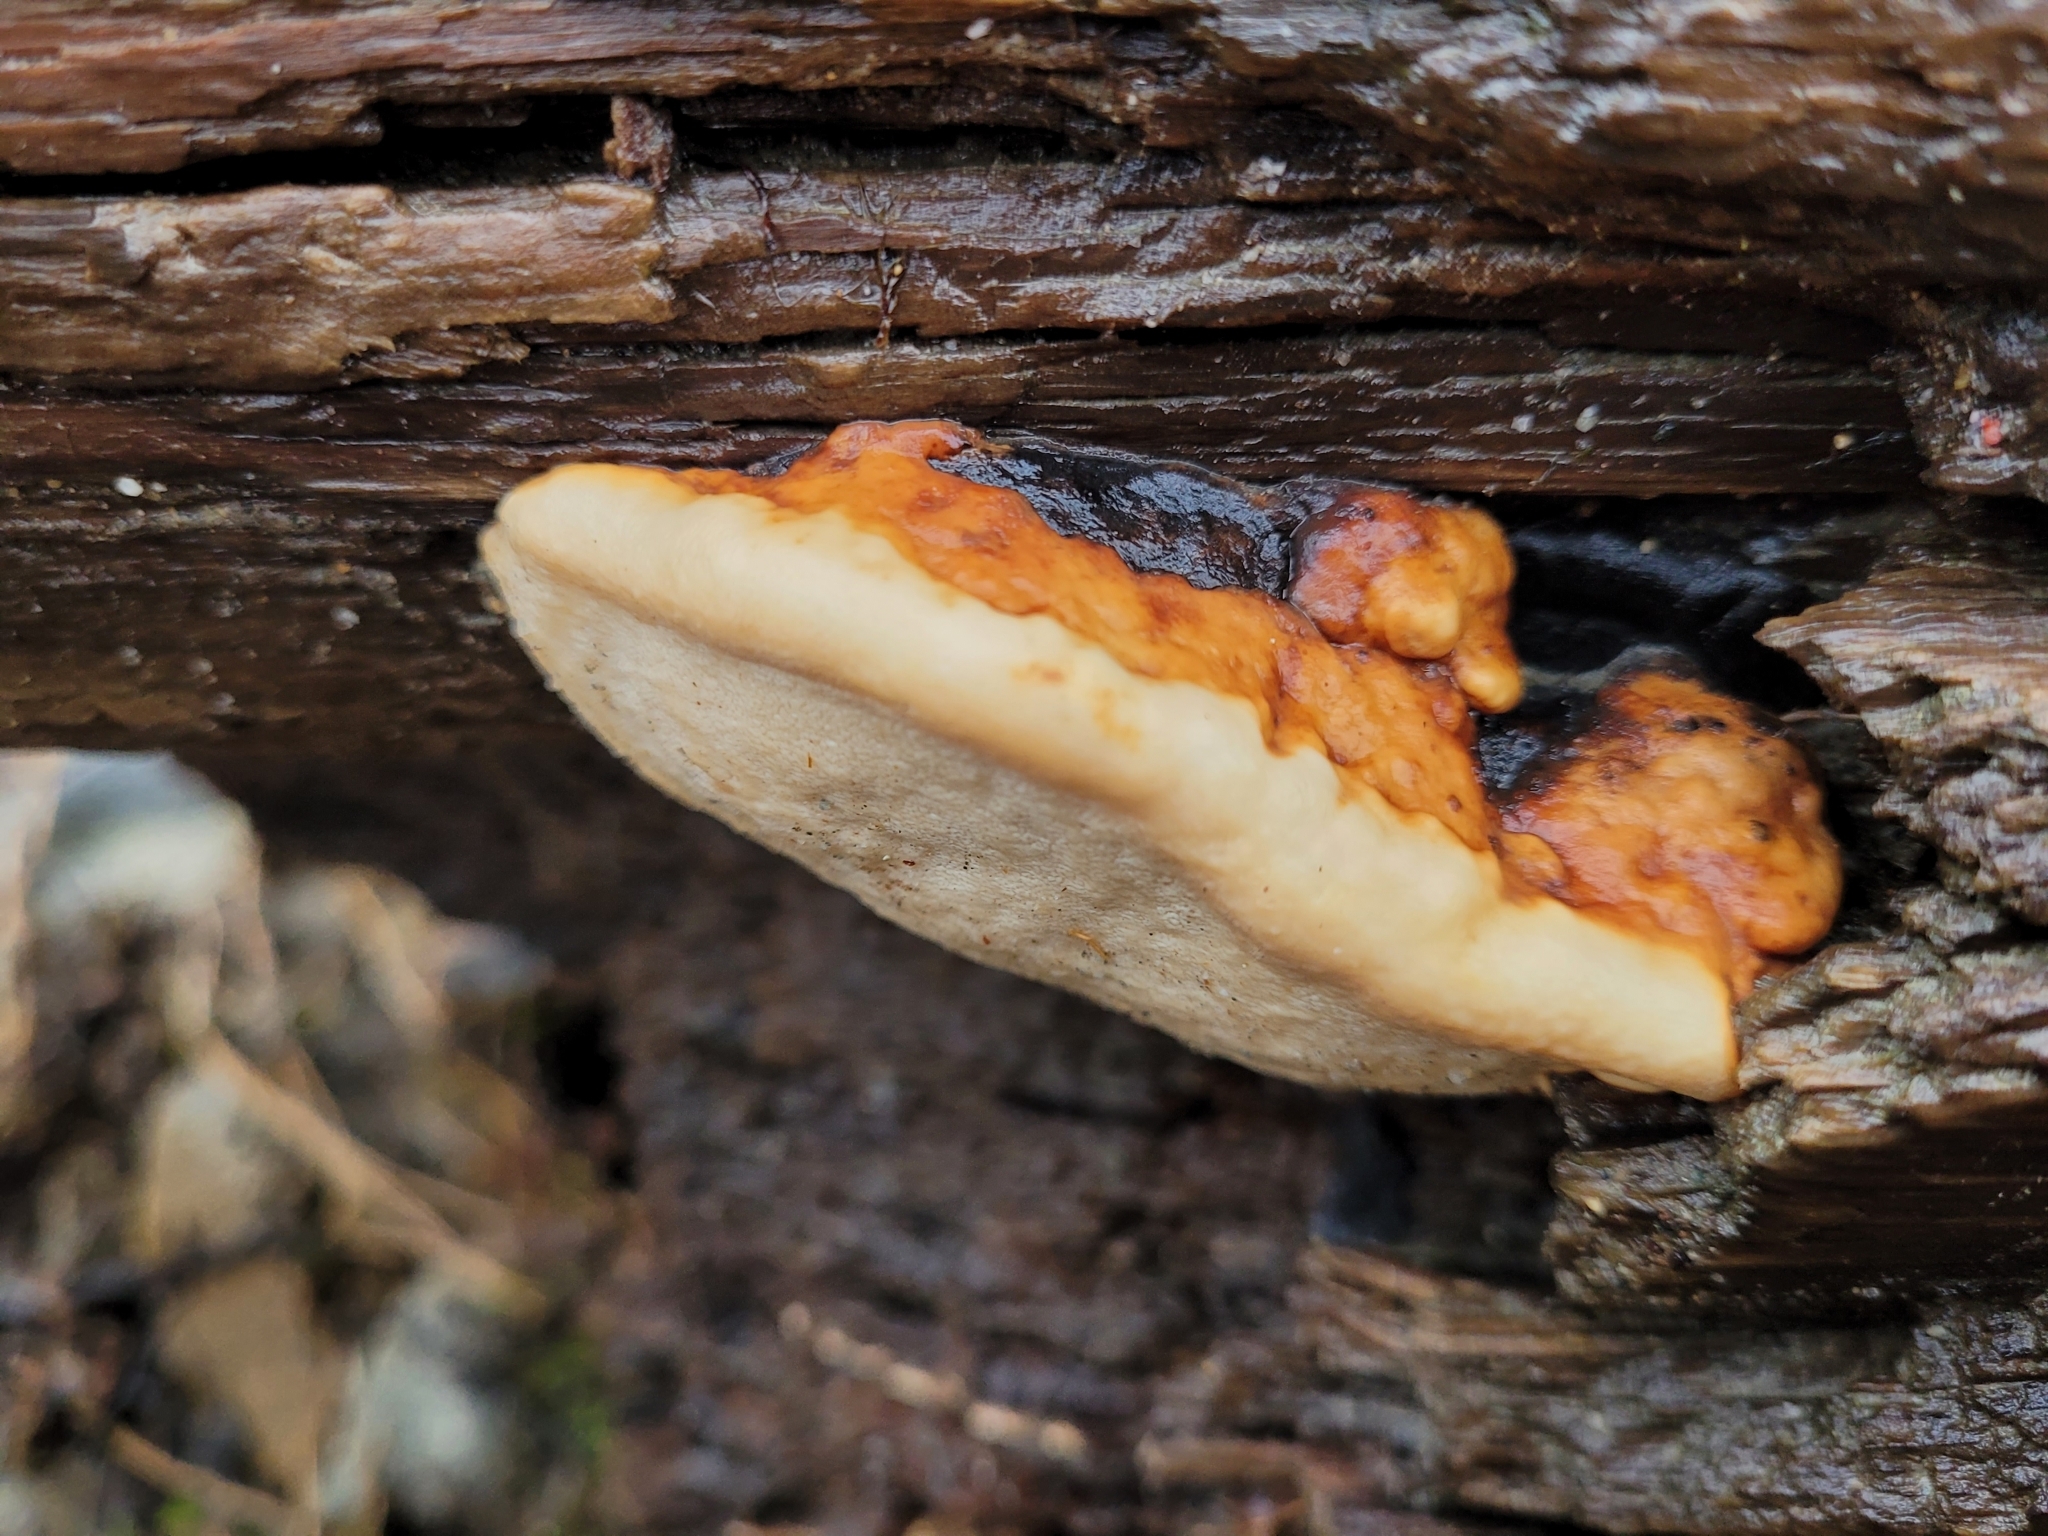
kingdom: Fungi
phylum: Basidiomycota
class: Agaricomycetes
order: Polyporales
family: Fomitopsidaceae
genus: Fomitopsis
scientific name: Fomitopsis mounceae
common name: Northern red belt
